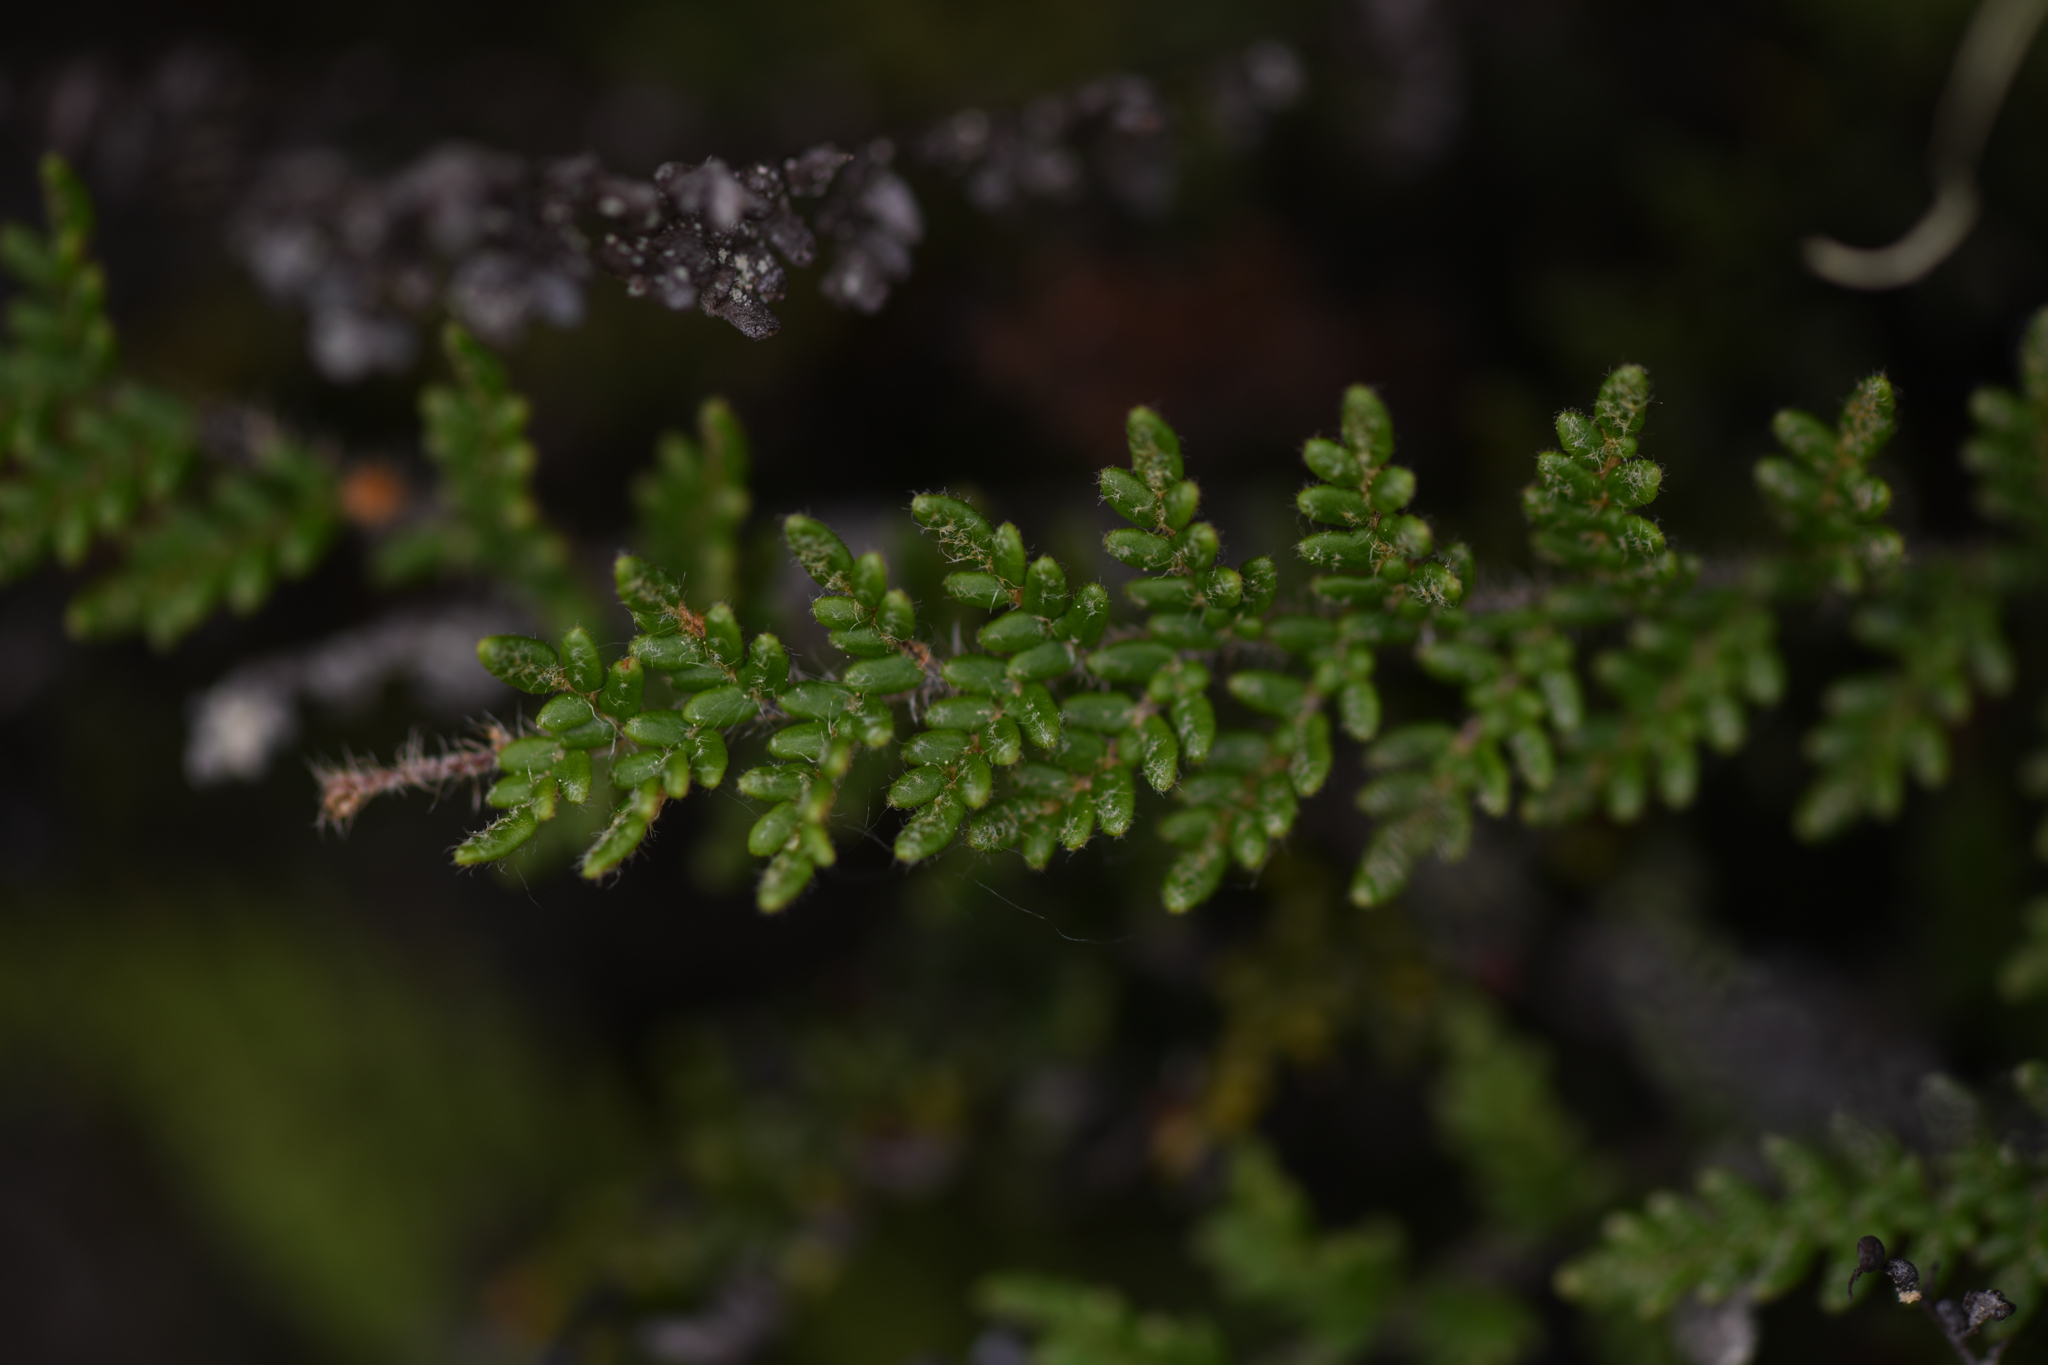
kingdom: Plantae
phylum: Tracheophyta
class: Polypodiopsida
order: Polypodiales
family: Pteridaceae
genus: Myriopteris
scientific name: Myriopteris gracillima
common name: Lace fern
